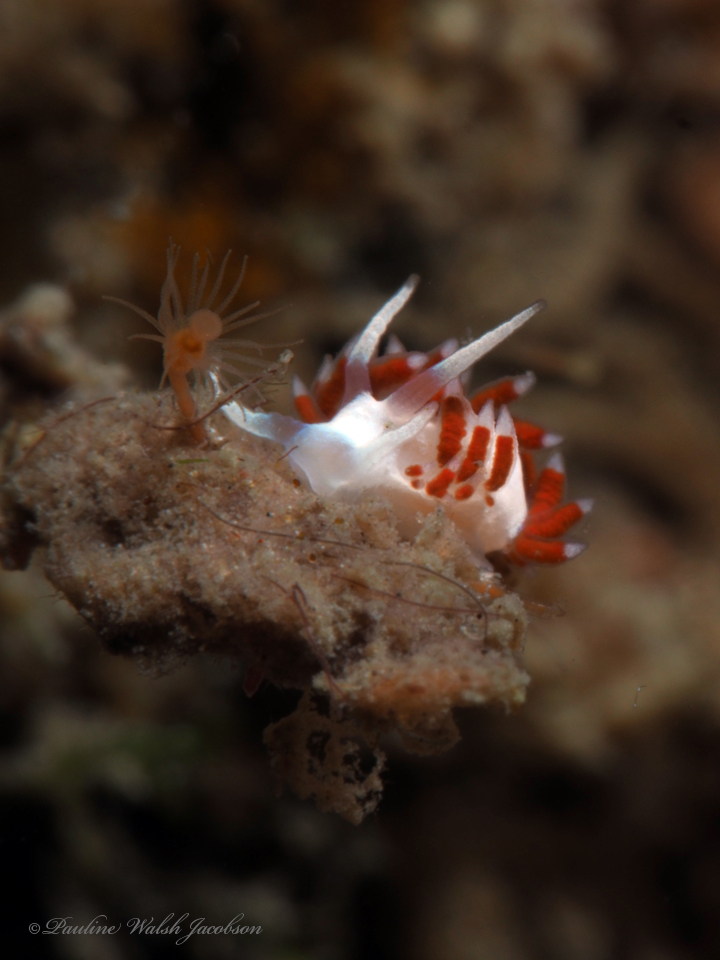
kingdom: Animalia
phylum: Mollusca
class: Gastropoda
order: Nudibranchia
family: Flabellinidae
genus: Flabellina
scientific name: Flabellina dushia
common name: Dushia flabellina
